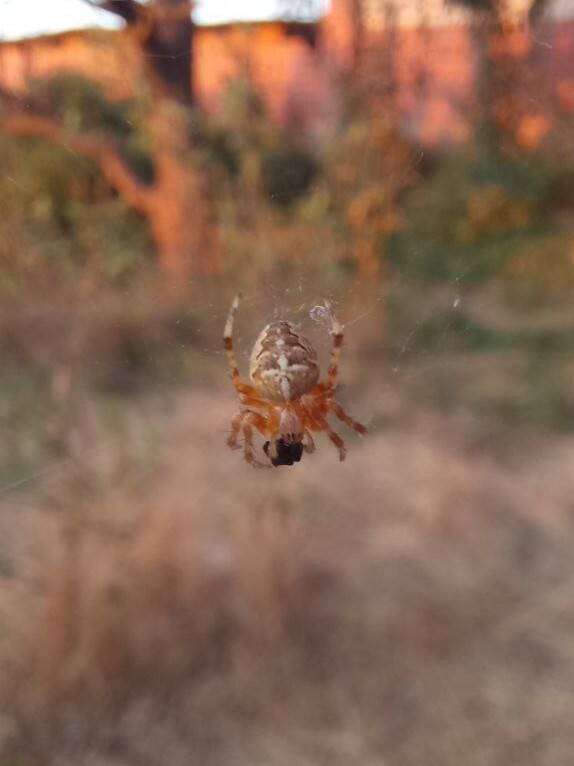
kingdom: Animalia
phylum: Arthropoda
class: Arachnida
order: Araneae
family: Araneidae
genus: Araneus
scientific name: Araneus diadematus
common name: Cross orbweaver
